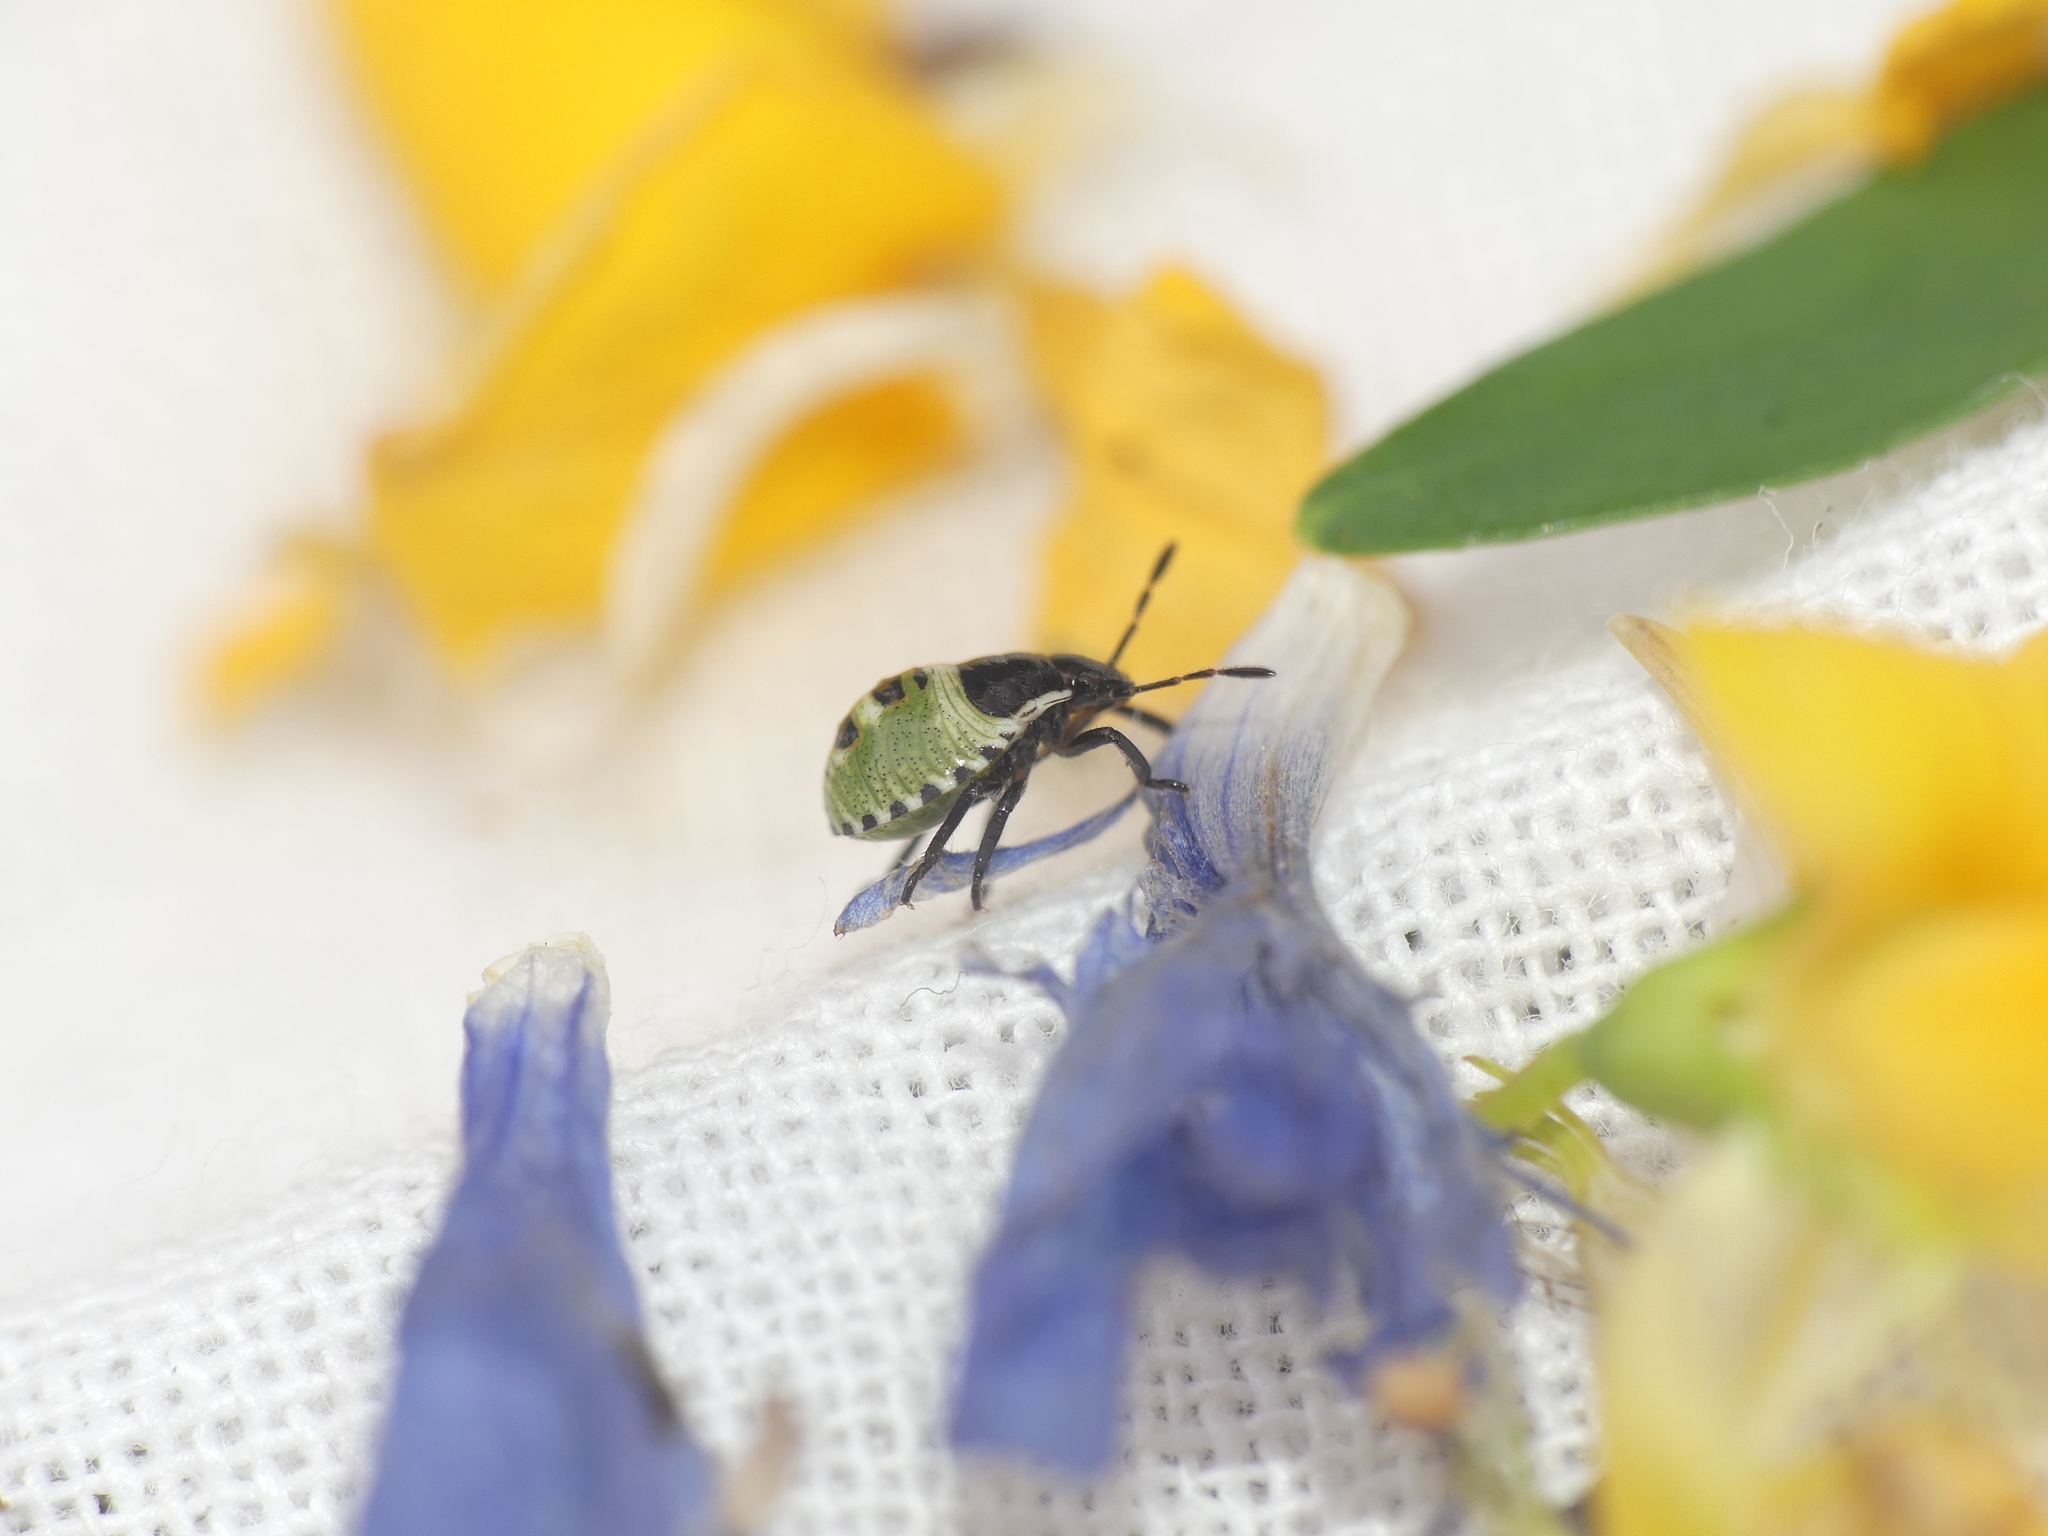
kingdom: Animalia
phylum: Arthropoda
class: Insecta
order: Hemiptera
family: Pentatomidae
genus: Palomena
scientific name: Palomena prasina
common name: Green shieldbug
